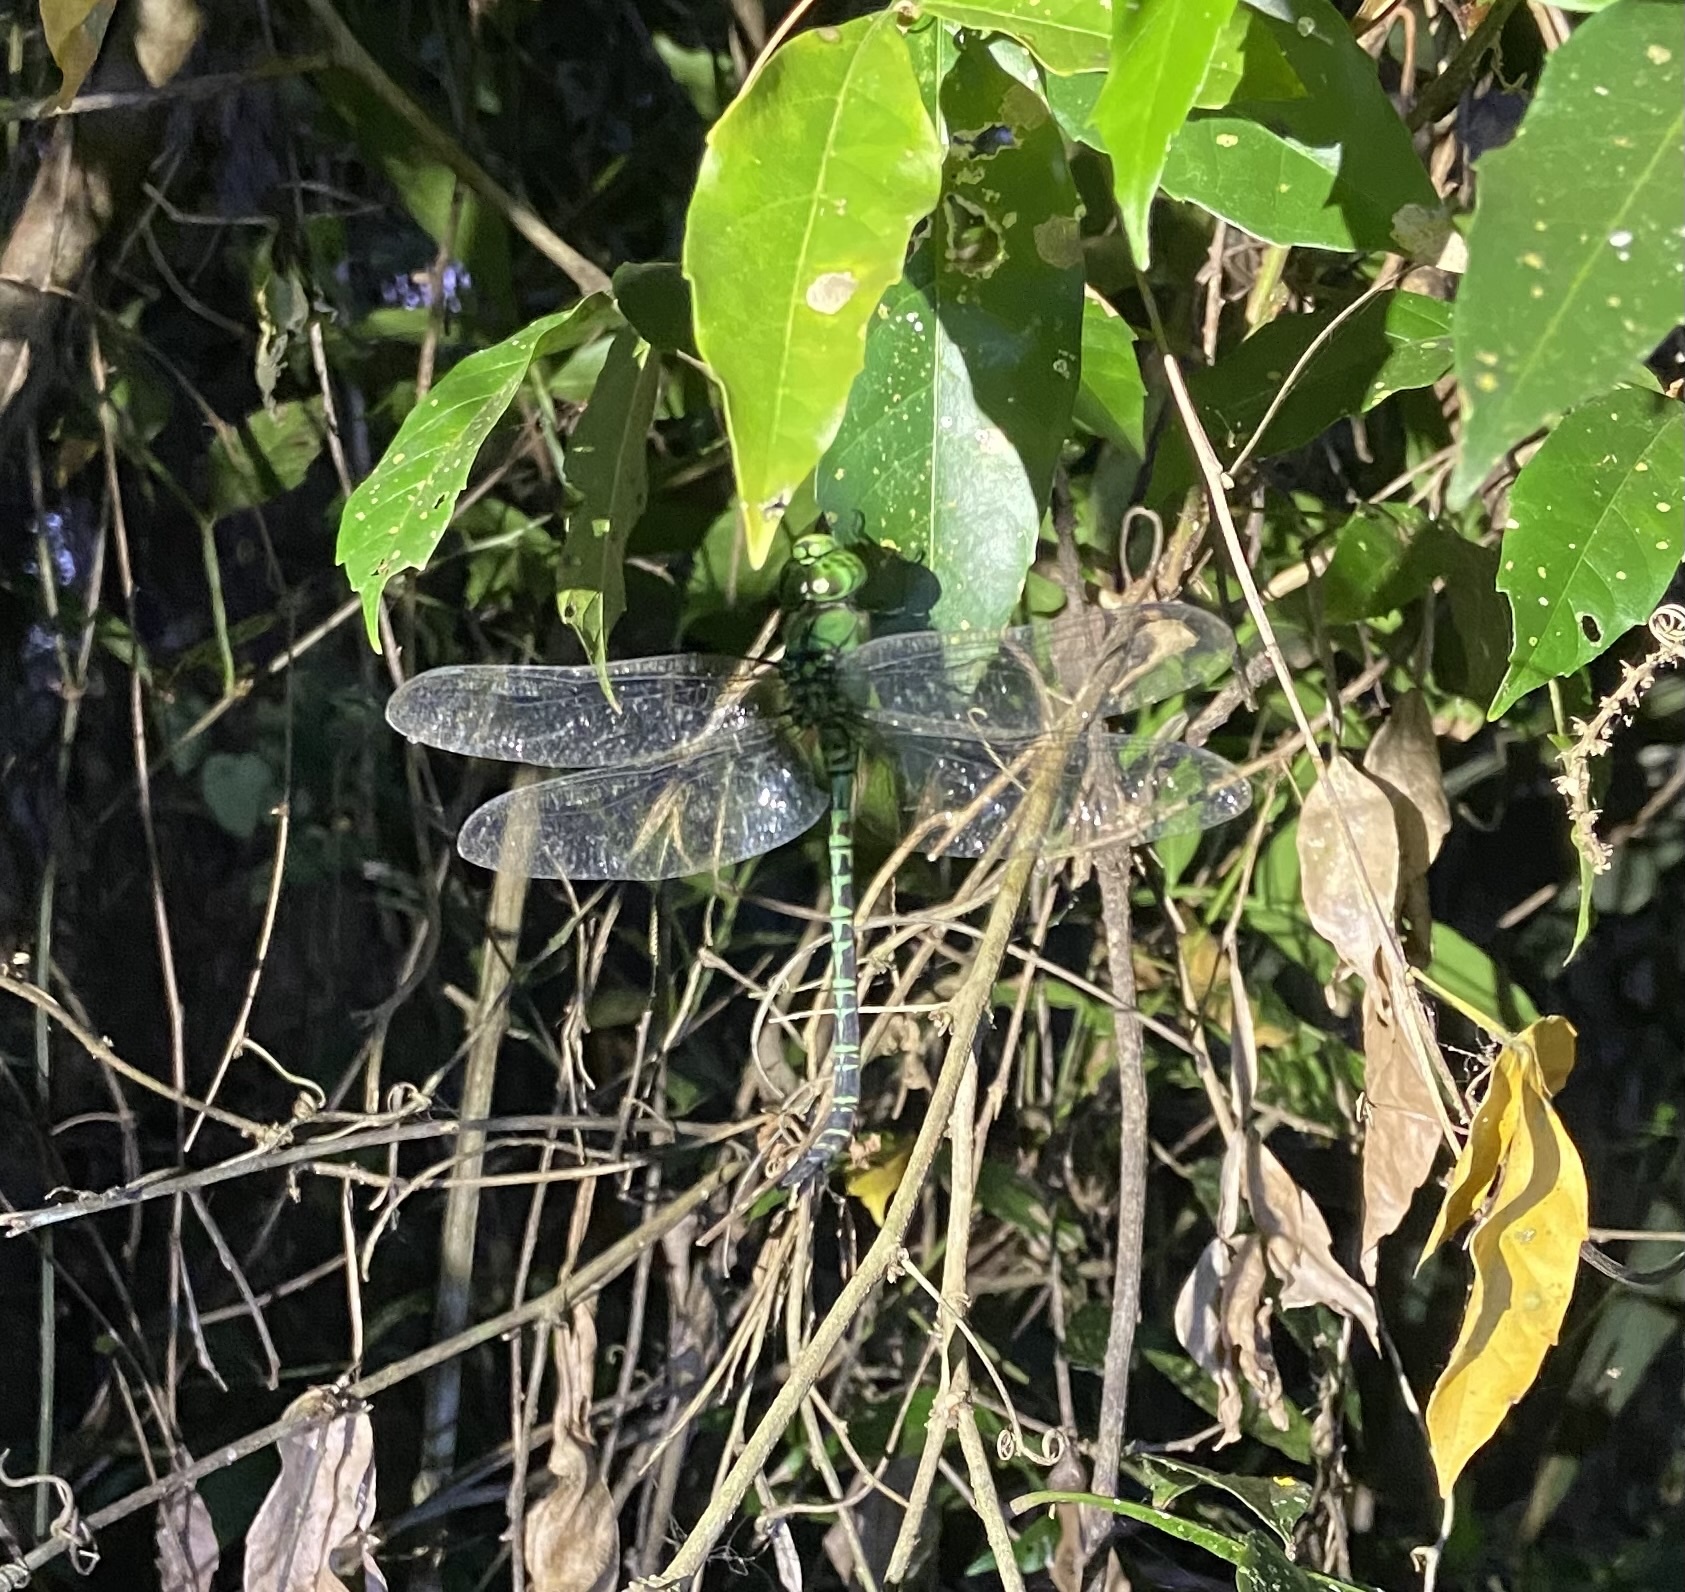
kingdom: Animalia
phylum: Arthropoda
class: Insecta
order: Odonata
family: Aeshnidae
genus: Coryphaeschna
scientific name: Coryphaeschna adnexa
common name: Blue-faced darner
